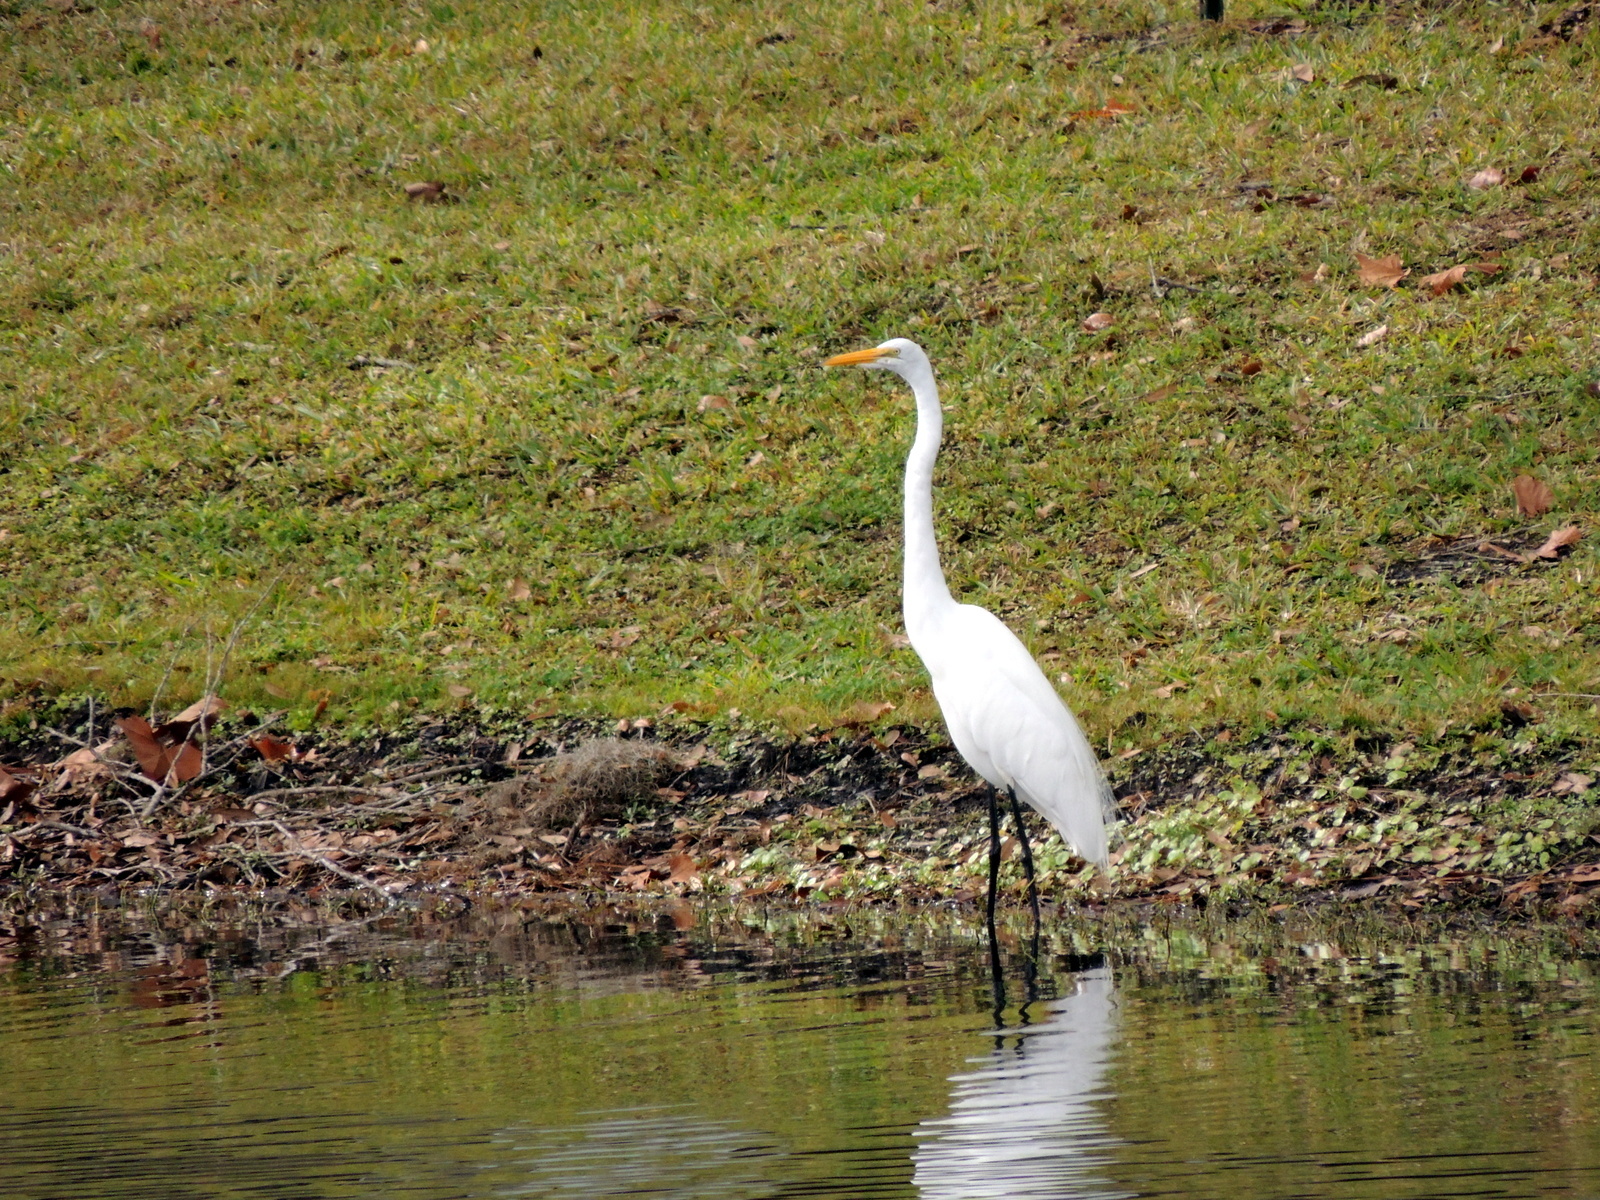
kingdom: Animalia
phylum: Chordata
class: Aves
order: Pelecaniformes
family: Ardeidae
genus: Ardea
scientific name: Ardea alba
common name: Great egret
